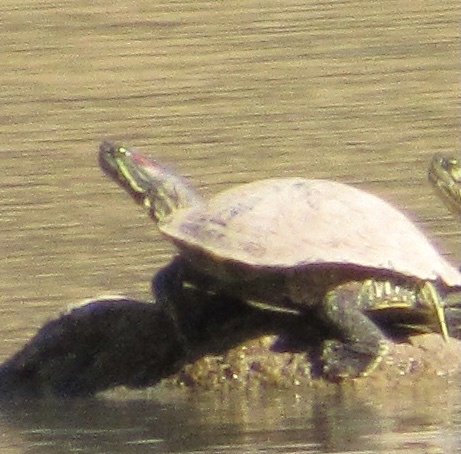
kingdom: Animalia
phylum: Chordata
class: Testudines
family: Emydidae
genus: Trachemys
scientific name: Trachemys scripta
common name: Slider
